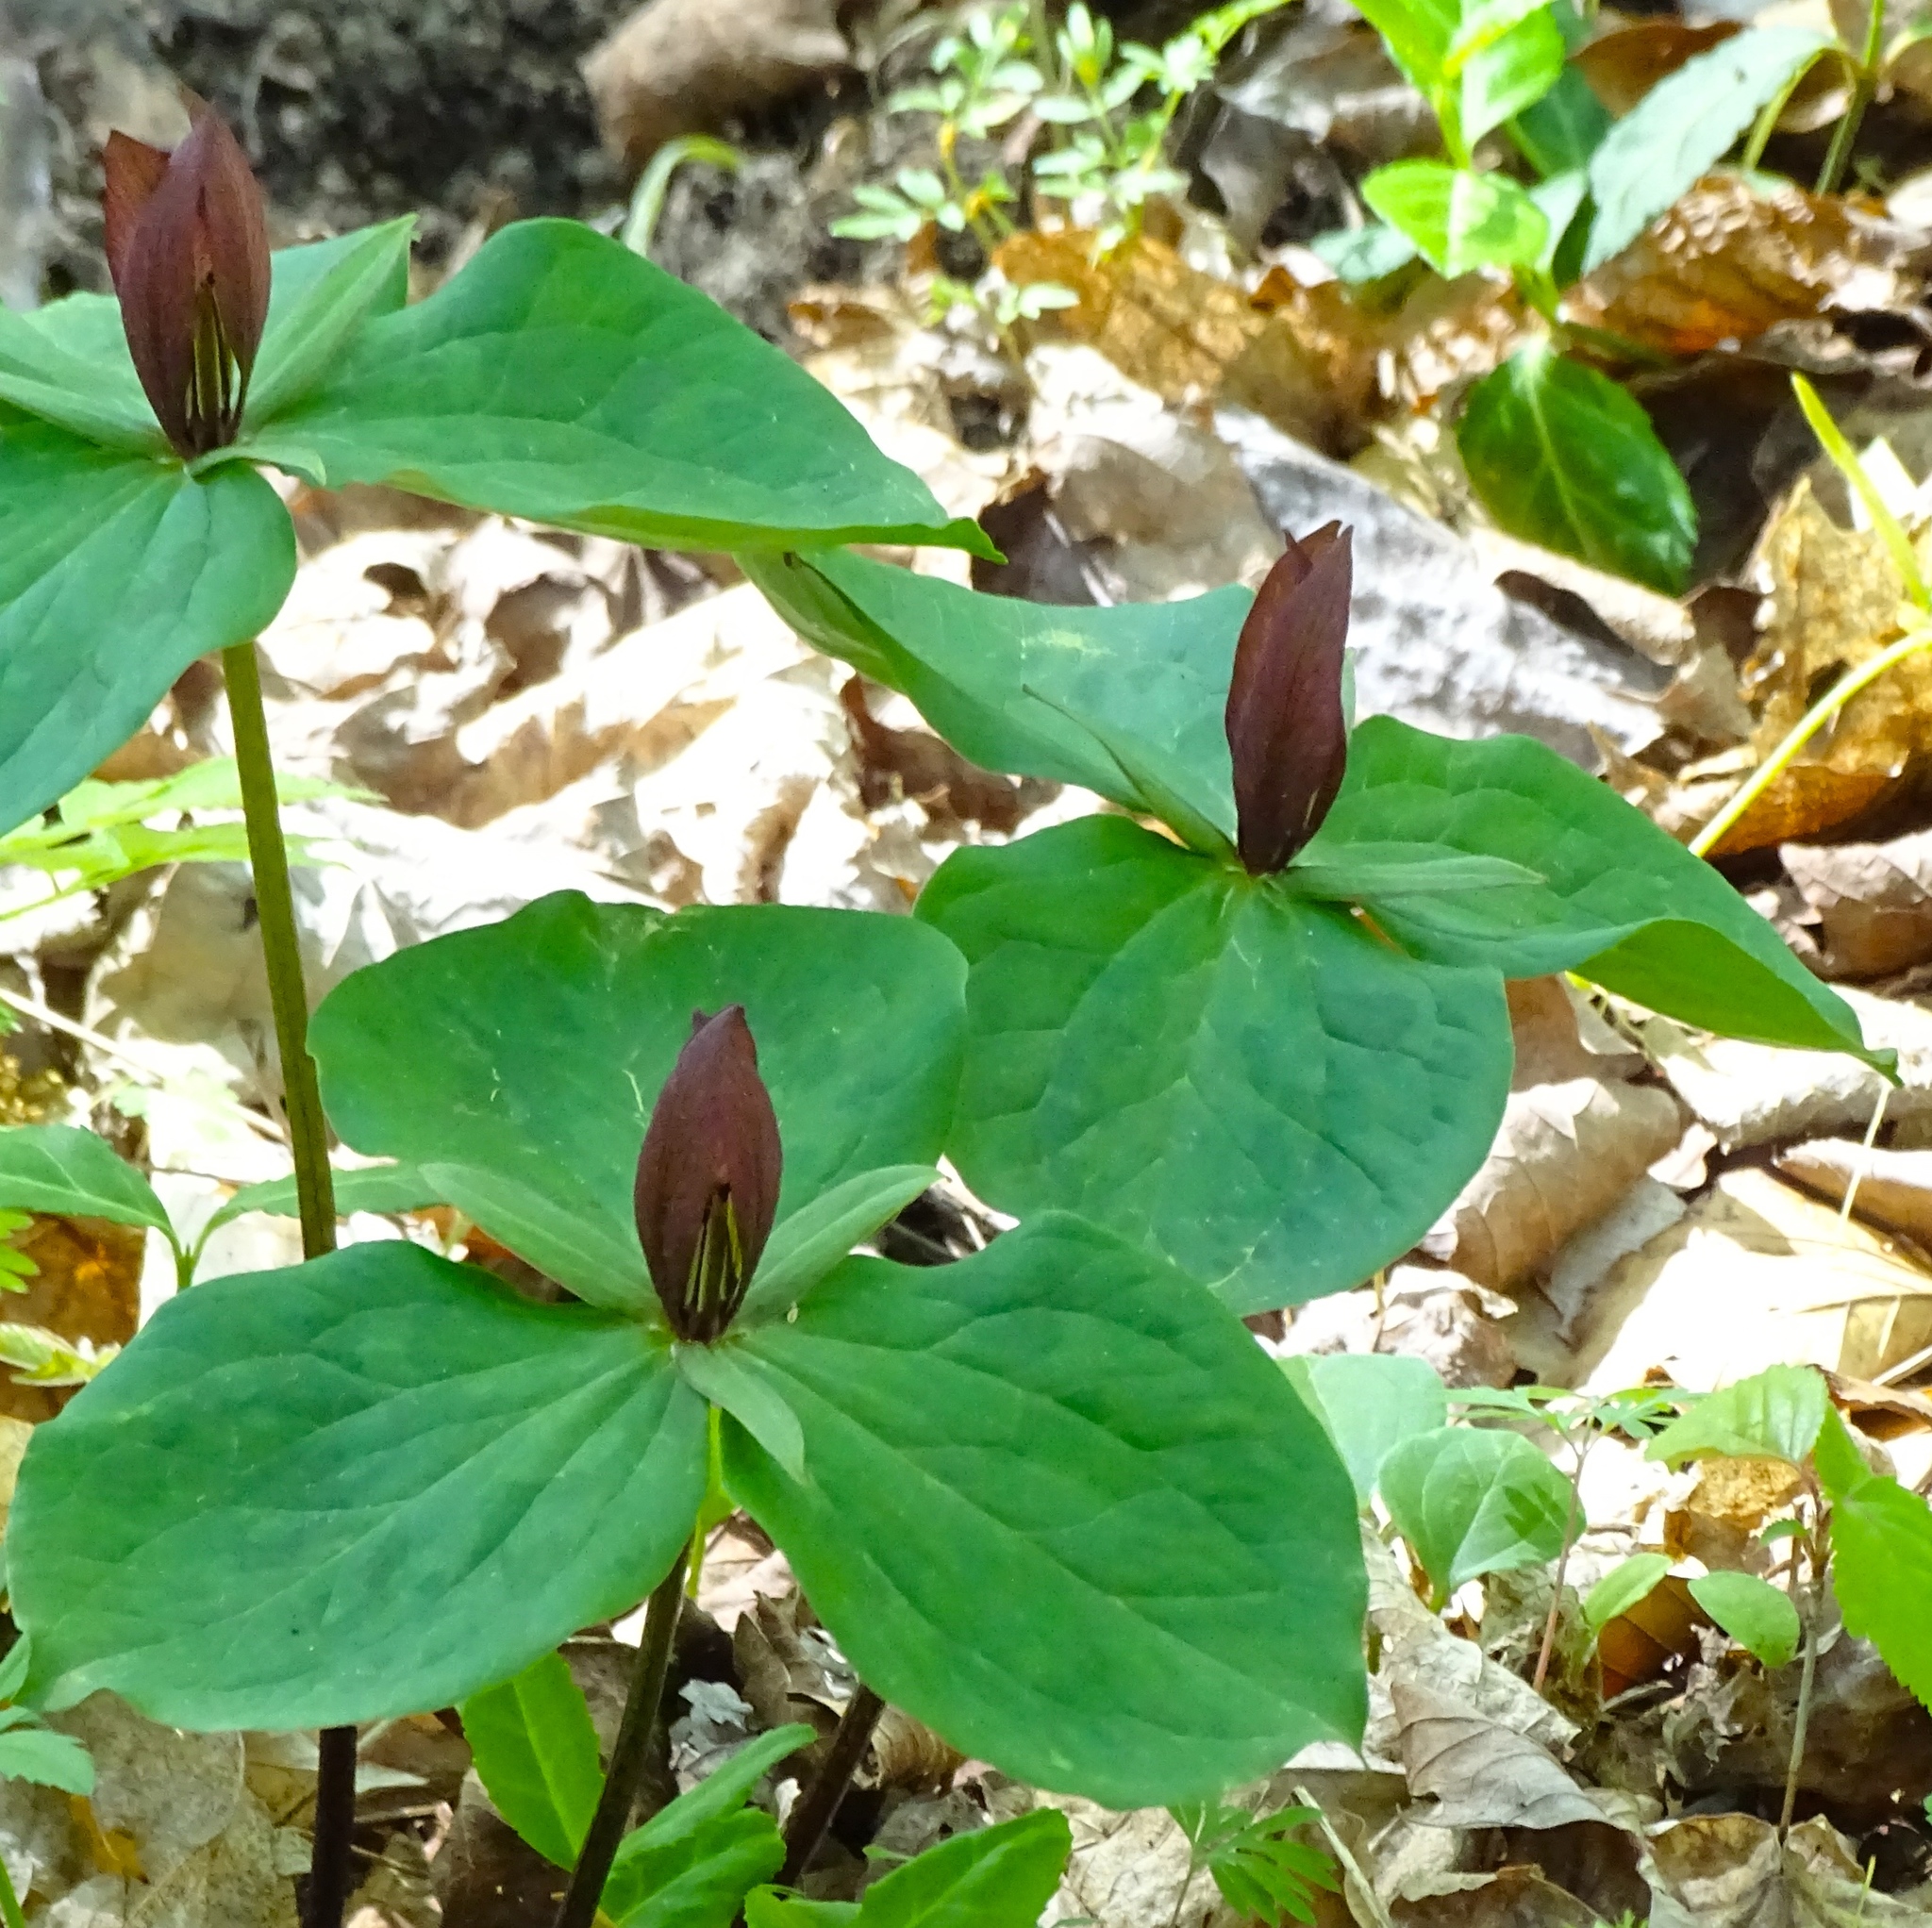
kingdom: Plantae
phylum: Tracheophyta
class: Liliopsida
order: Liliales
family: Melanthiaceae
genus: Trillium
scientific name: Trillium sessile
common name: Sessile trillium
